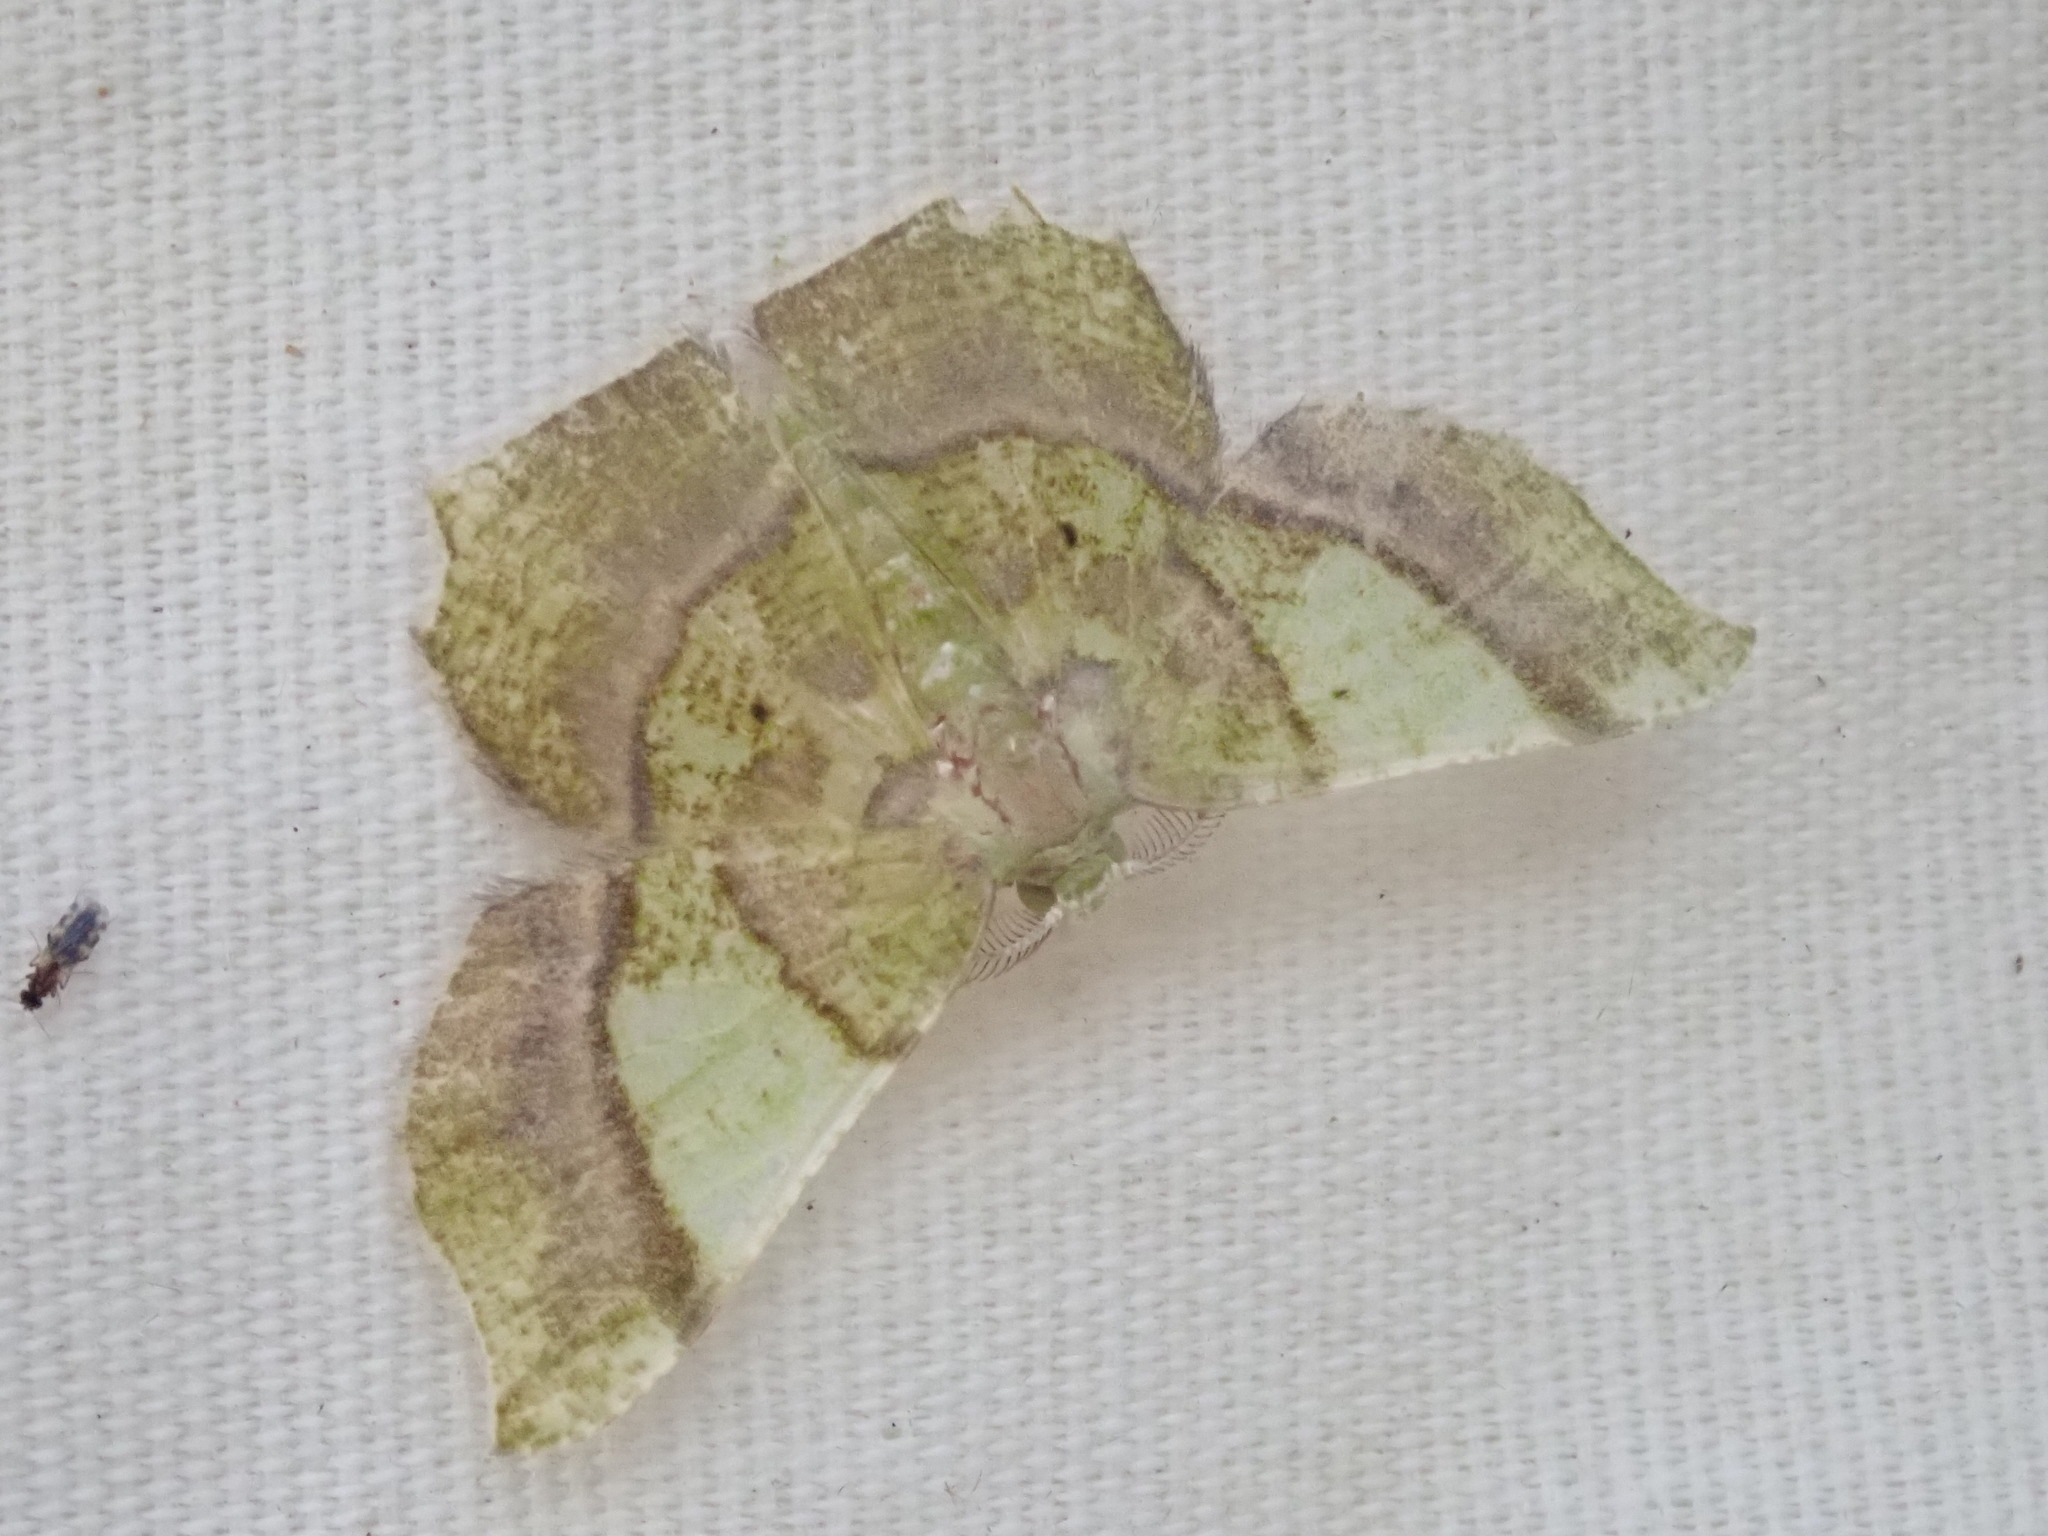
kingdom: Animalia
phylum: Arthropoda
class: Insecta
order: Lepidoptera
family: Geometridae
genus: Neagathia
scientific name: Neagathia corruptata
